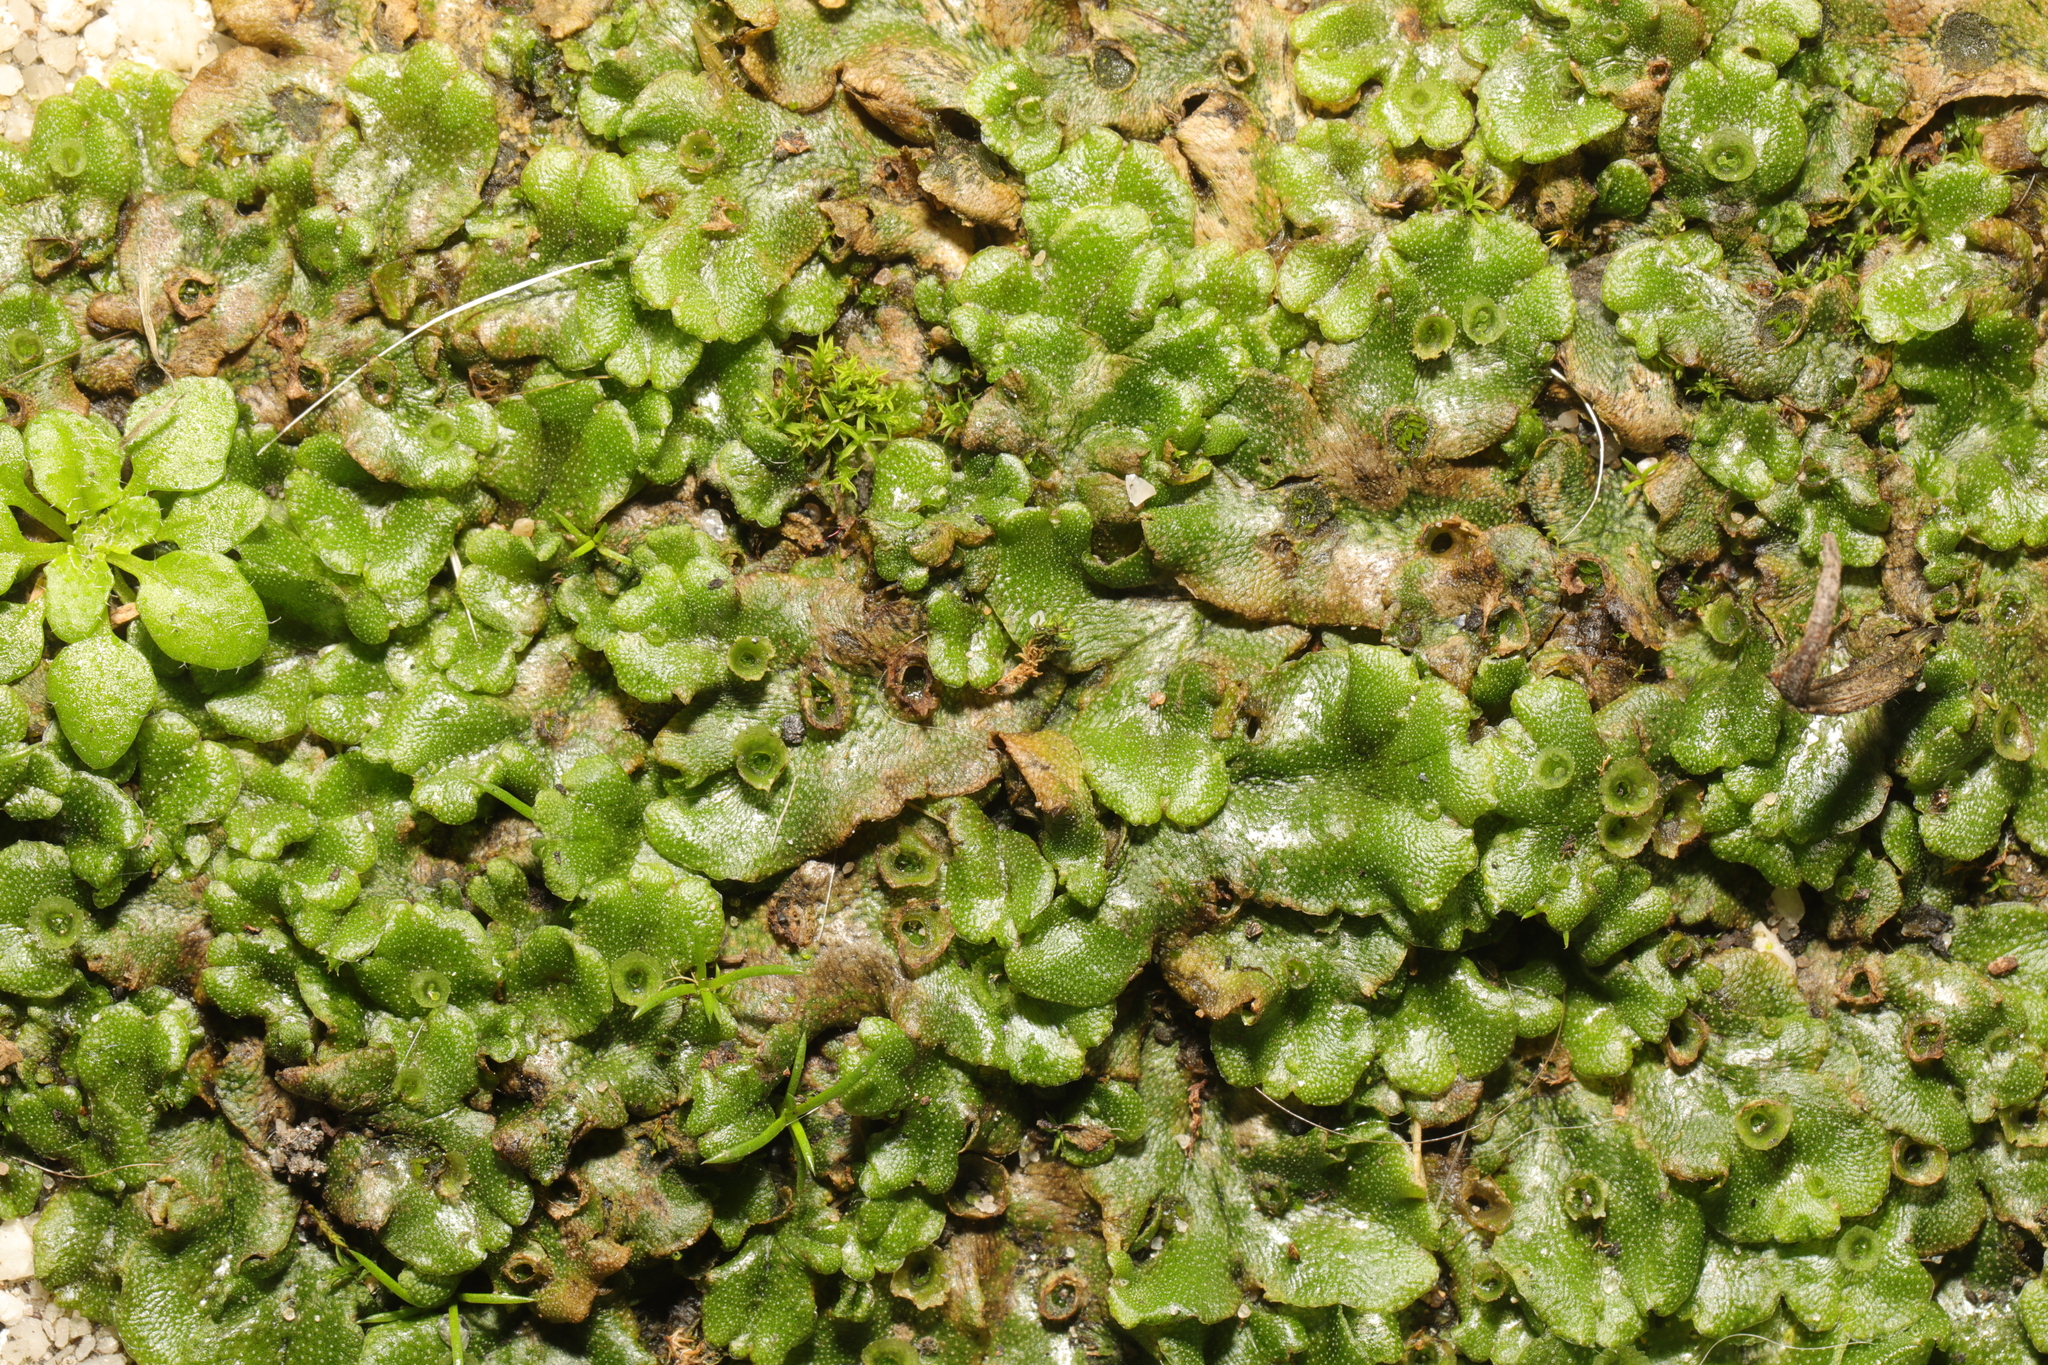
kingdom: Plantae
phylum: Marchantiophyta
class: Marchantiopsida
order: Marchantiales
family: Marchantiaceae
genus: Marchantia
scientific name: Marchantia polymorpha
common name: Common liverwort
